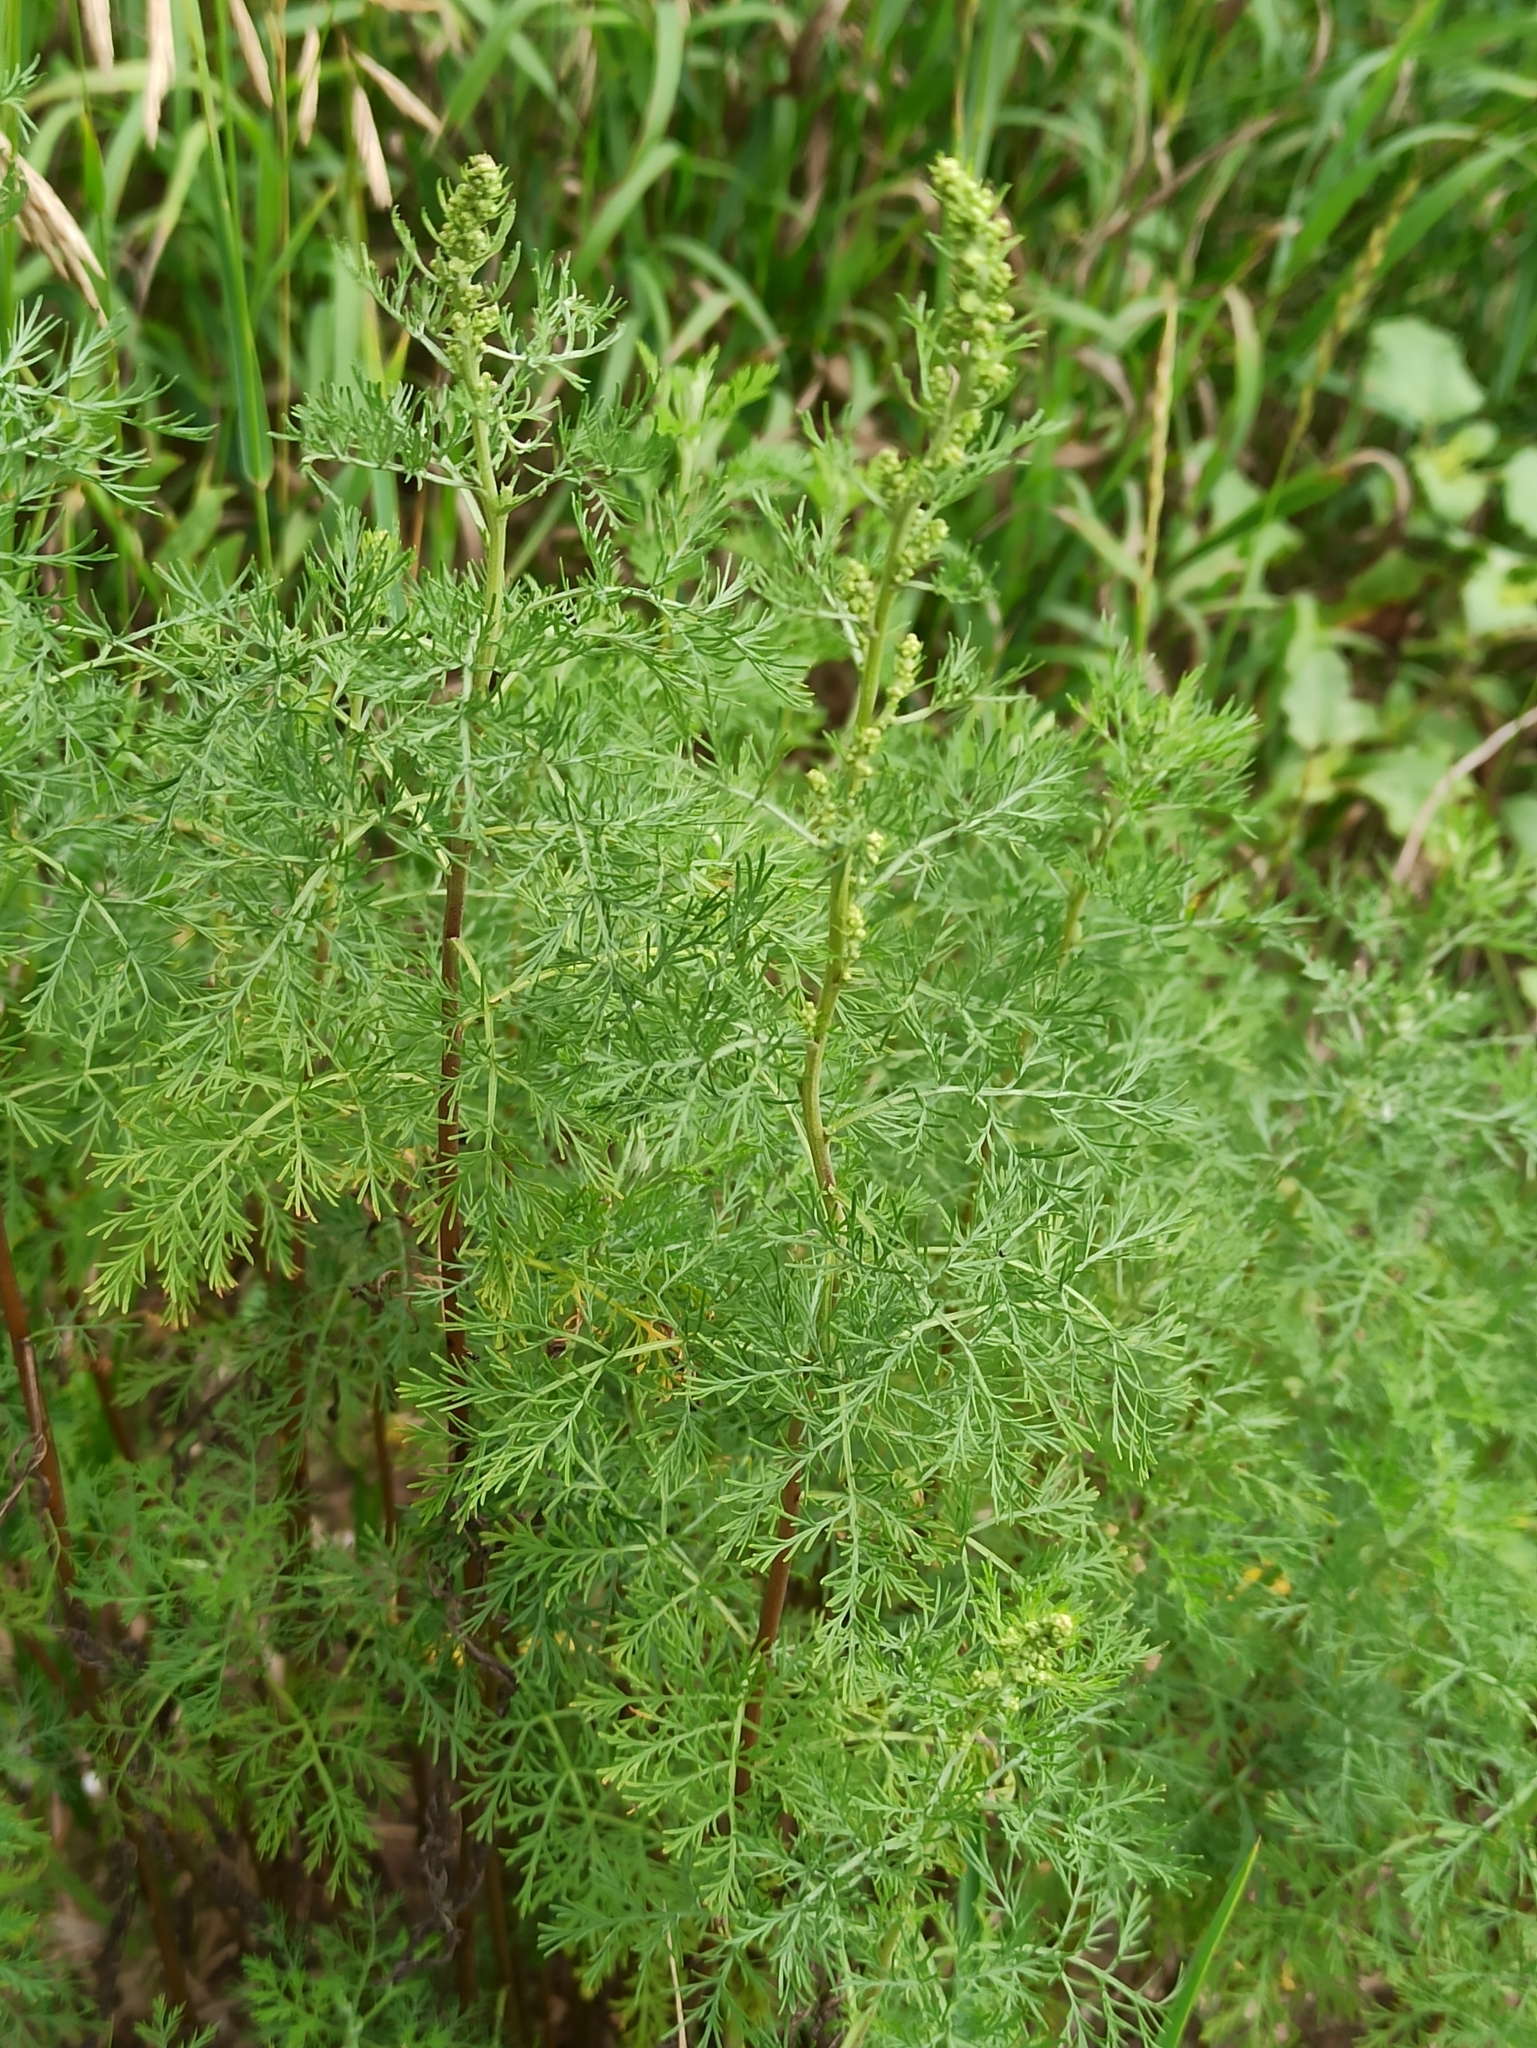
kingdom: Plantae
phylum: Tracheophyta
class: Magnoliopsida
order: Asterales
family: Asteraceae
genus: Artemisia
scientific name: Artemisia abrotanum
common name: Southernwood
